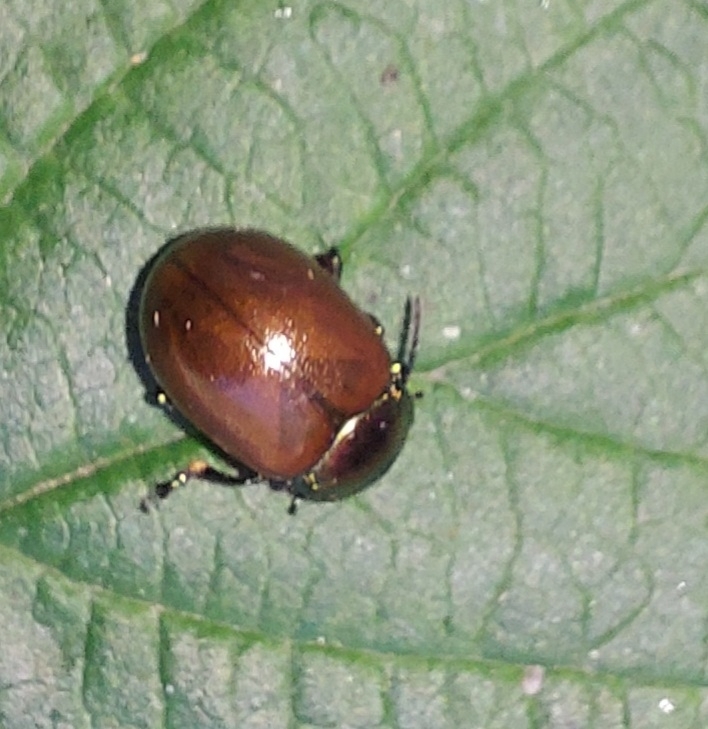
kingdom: Animalia
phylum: Arthropoda
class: Insecta
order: Coleoptera
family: Chrysomelidae
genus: Chrysomela
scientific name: Chrysomela polita
